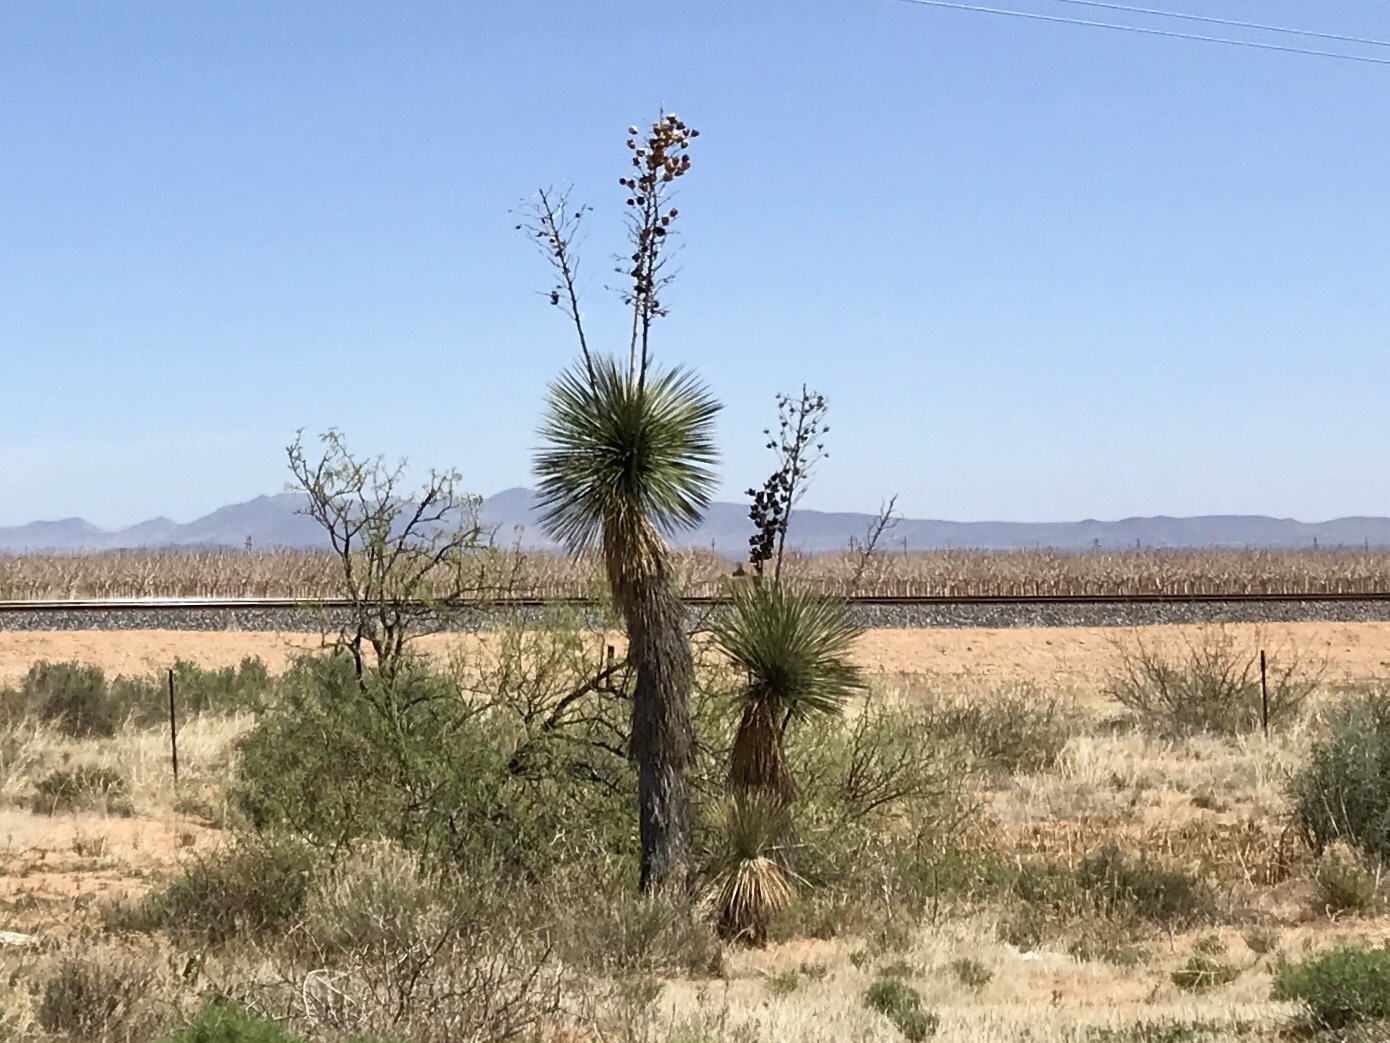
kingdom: Plantae
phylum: Tracheophyta
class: Liliopsida
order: Asparagales
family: Asparagaceae
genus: Yucca
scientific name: Yucca elata
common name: Palmella
